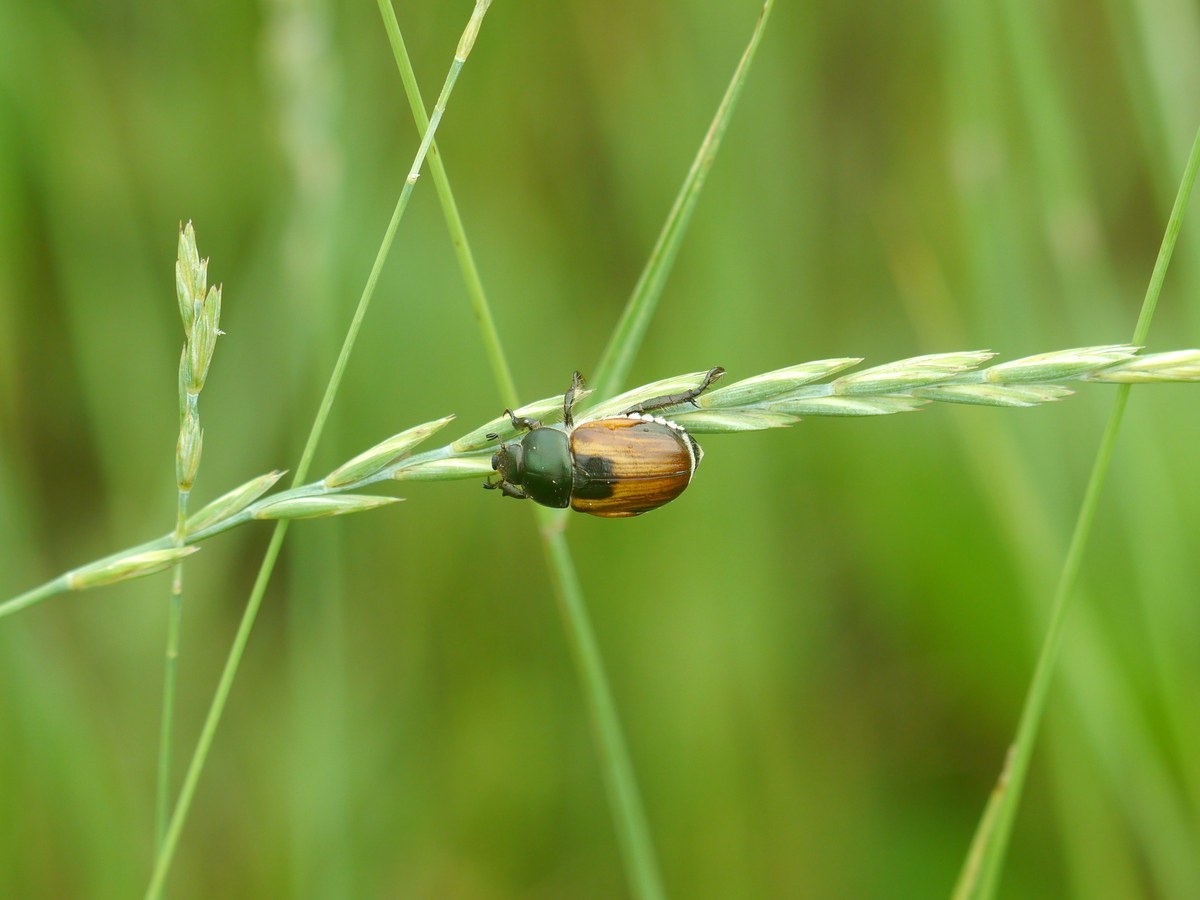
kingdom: Animalia
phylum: Arthropoda
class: Insecta
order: Coleoptera
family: Scarabaeidae
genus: Anisoplia
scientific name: Anisoplia austriaca
